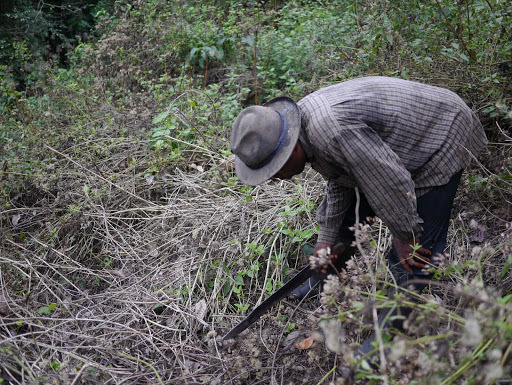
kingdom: Animalia
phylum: Chordata
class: Mammalia
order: Primates
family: Hominidae
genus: Gorilla
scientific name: Gorilla gorilla
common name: Western gorilla
